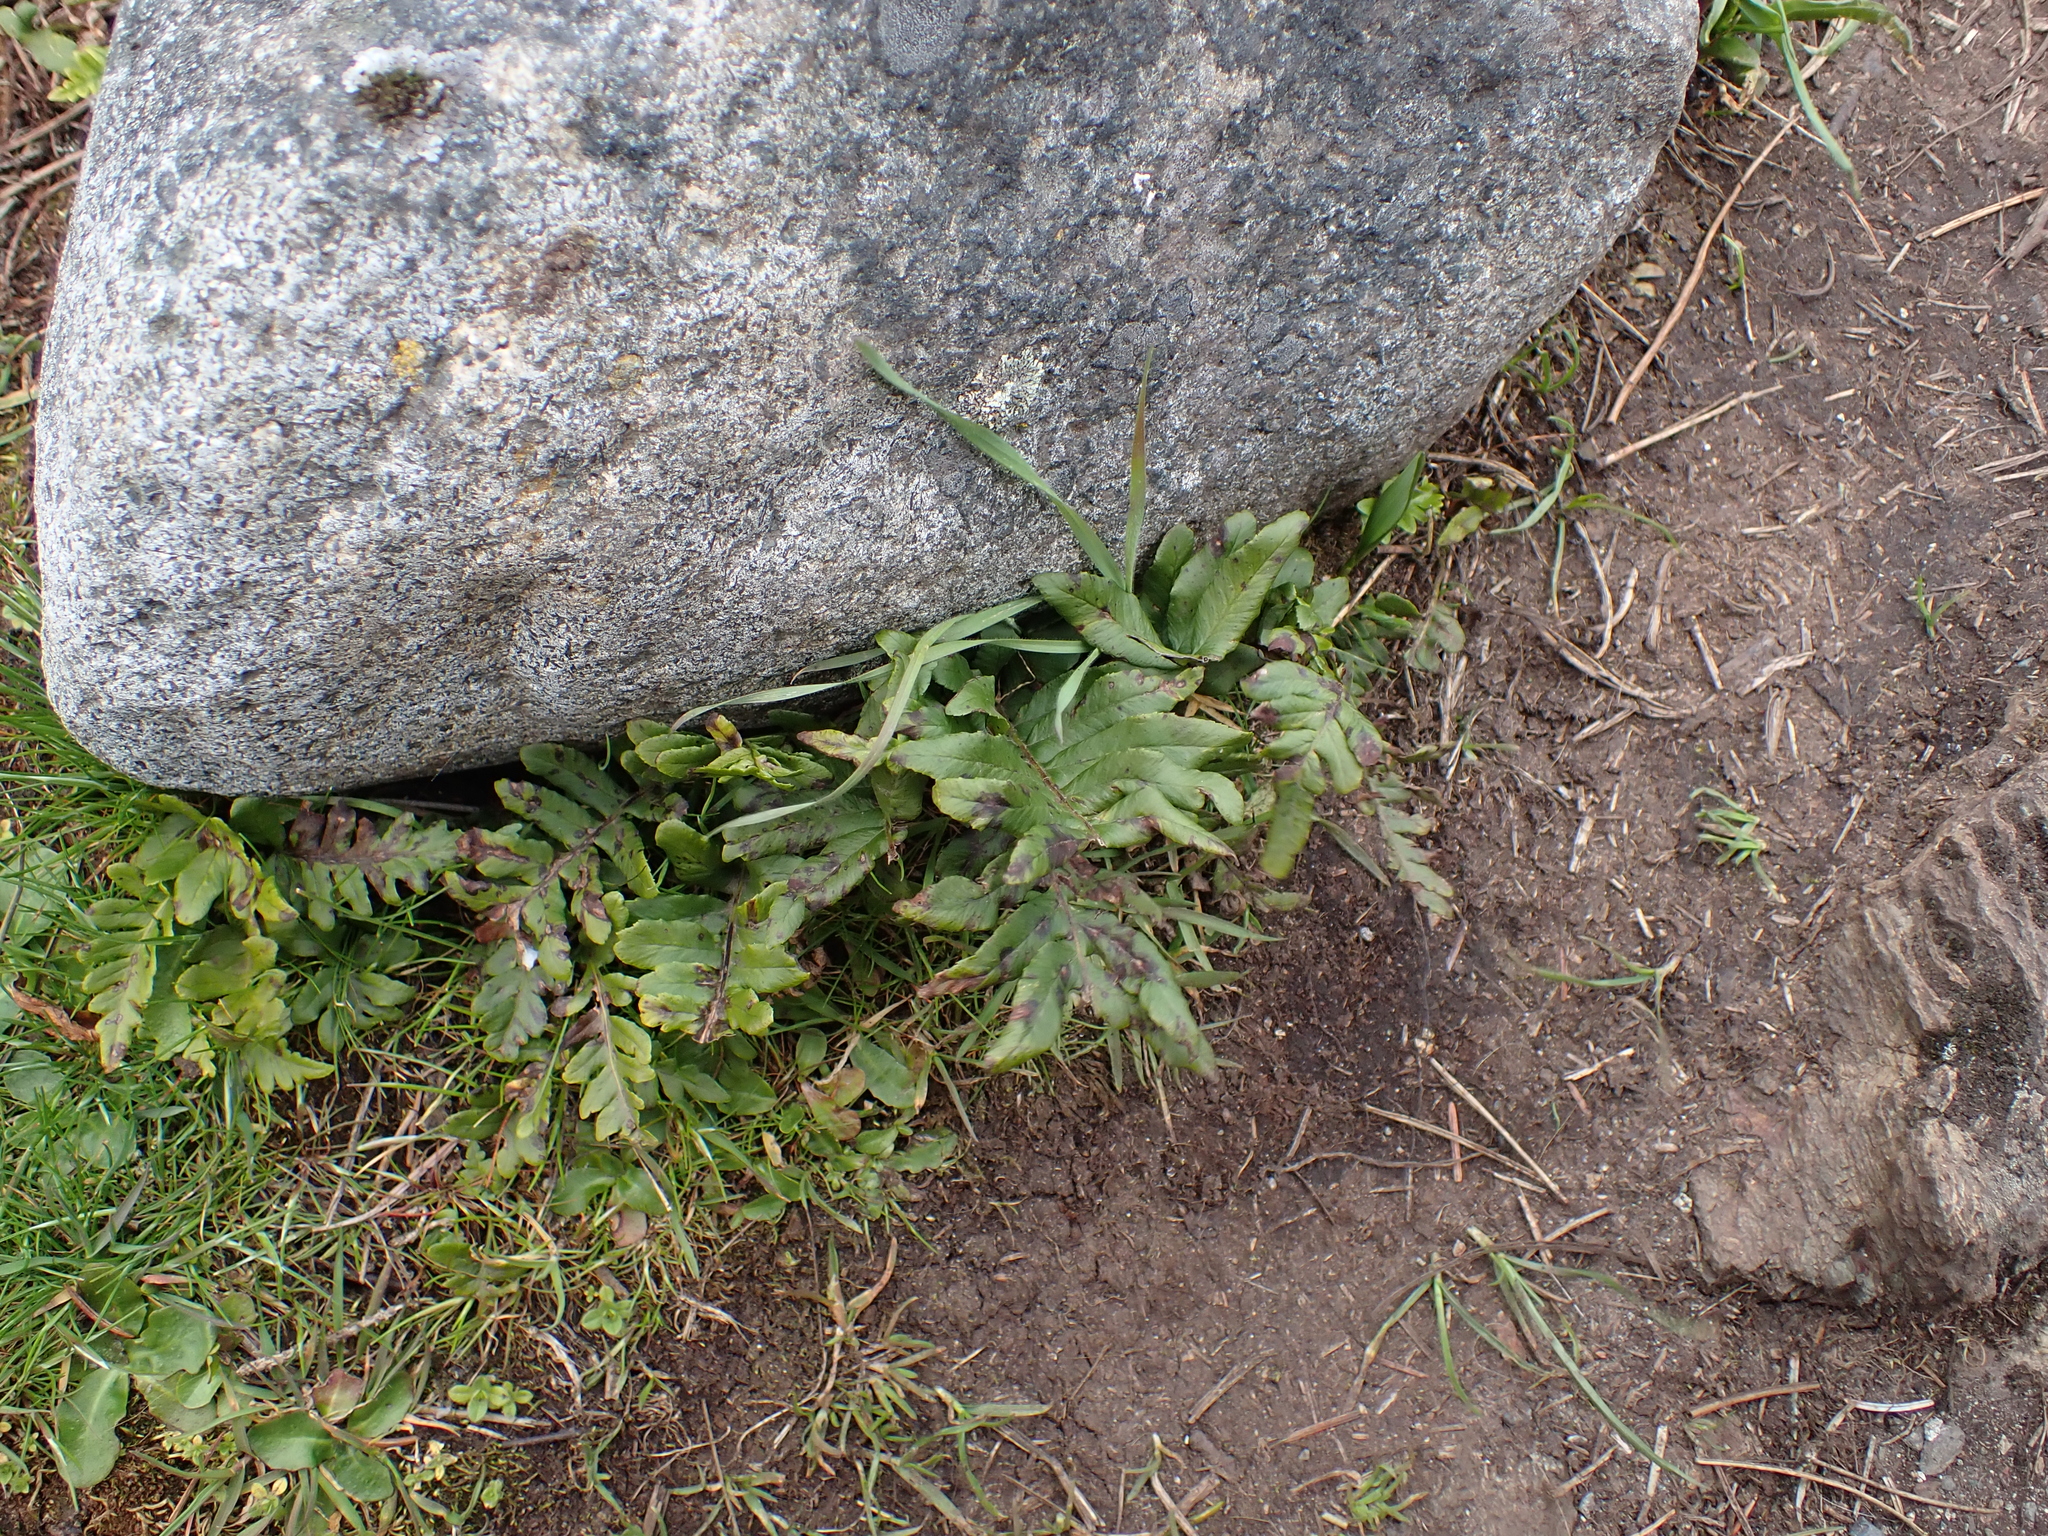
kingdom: Plantae
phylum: Tracheophyta
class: Polypodiopsida
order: Polypodiales
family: Polypodiaceae
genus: Polypodium
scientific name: Polypodium glycyrrhiza
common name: Licorice fern
